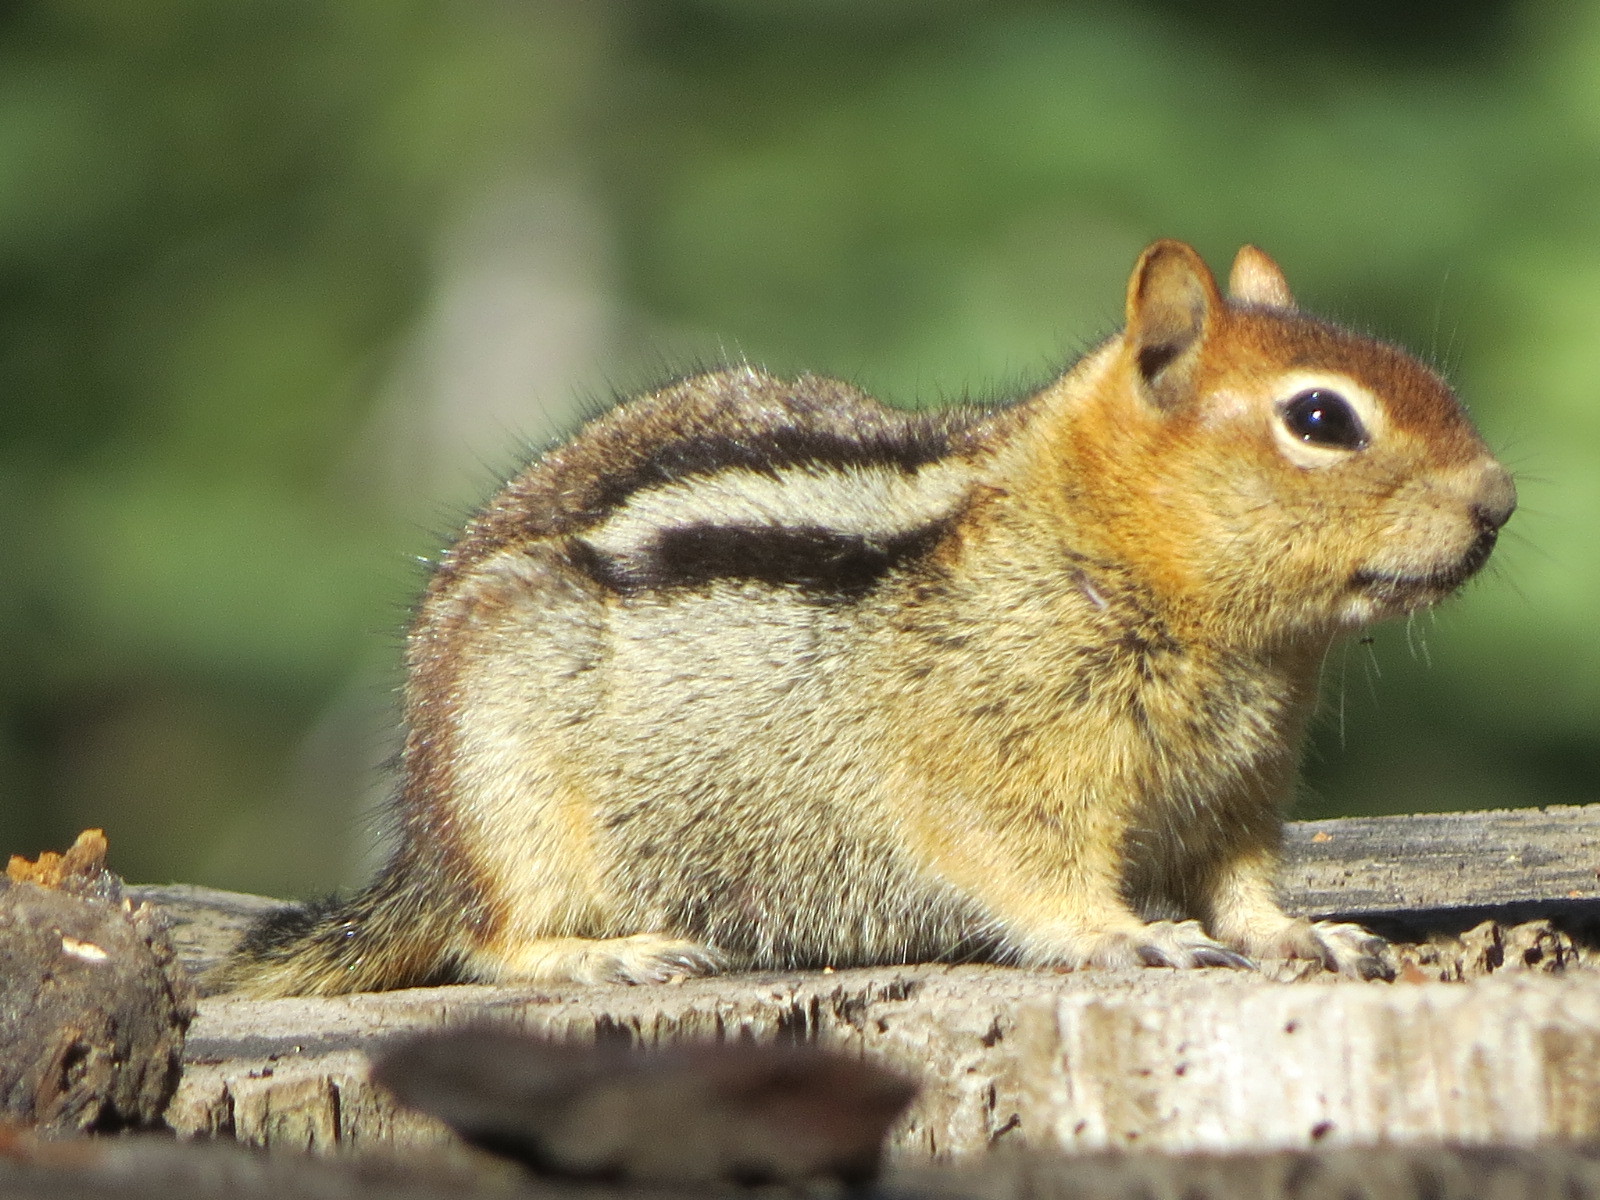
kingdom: Animalia
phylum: Chordata
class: Mammalia
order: Rodentia
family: Sciuridae
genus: Callospermophilus
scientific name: Callospermophilus lateralis
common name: Golden-mantled ground squirrel
